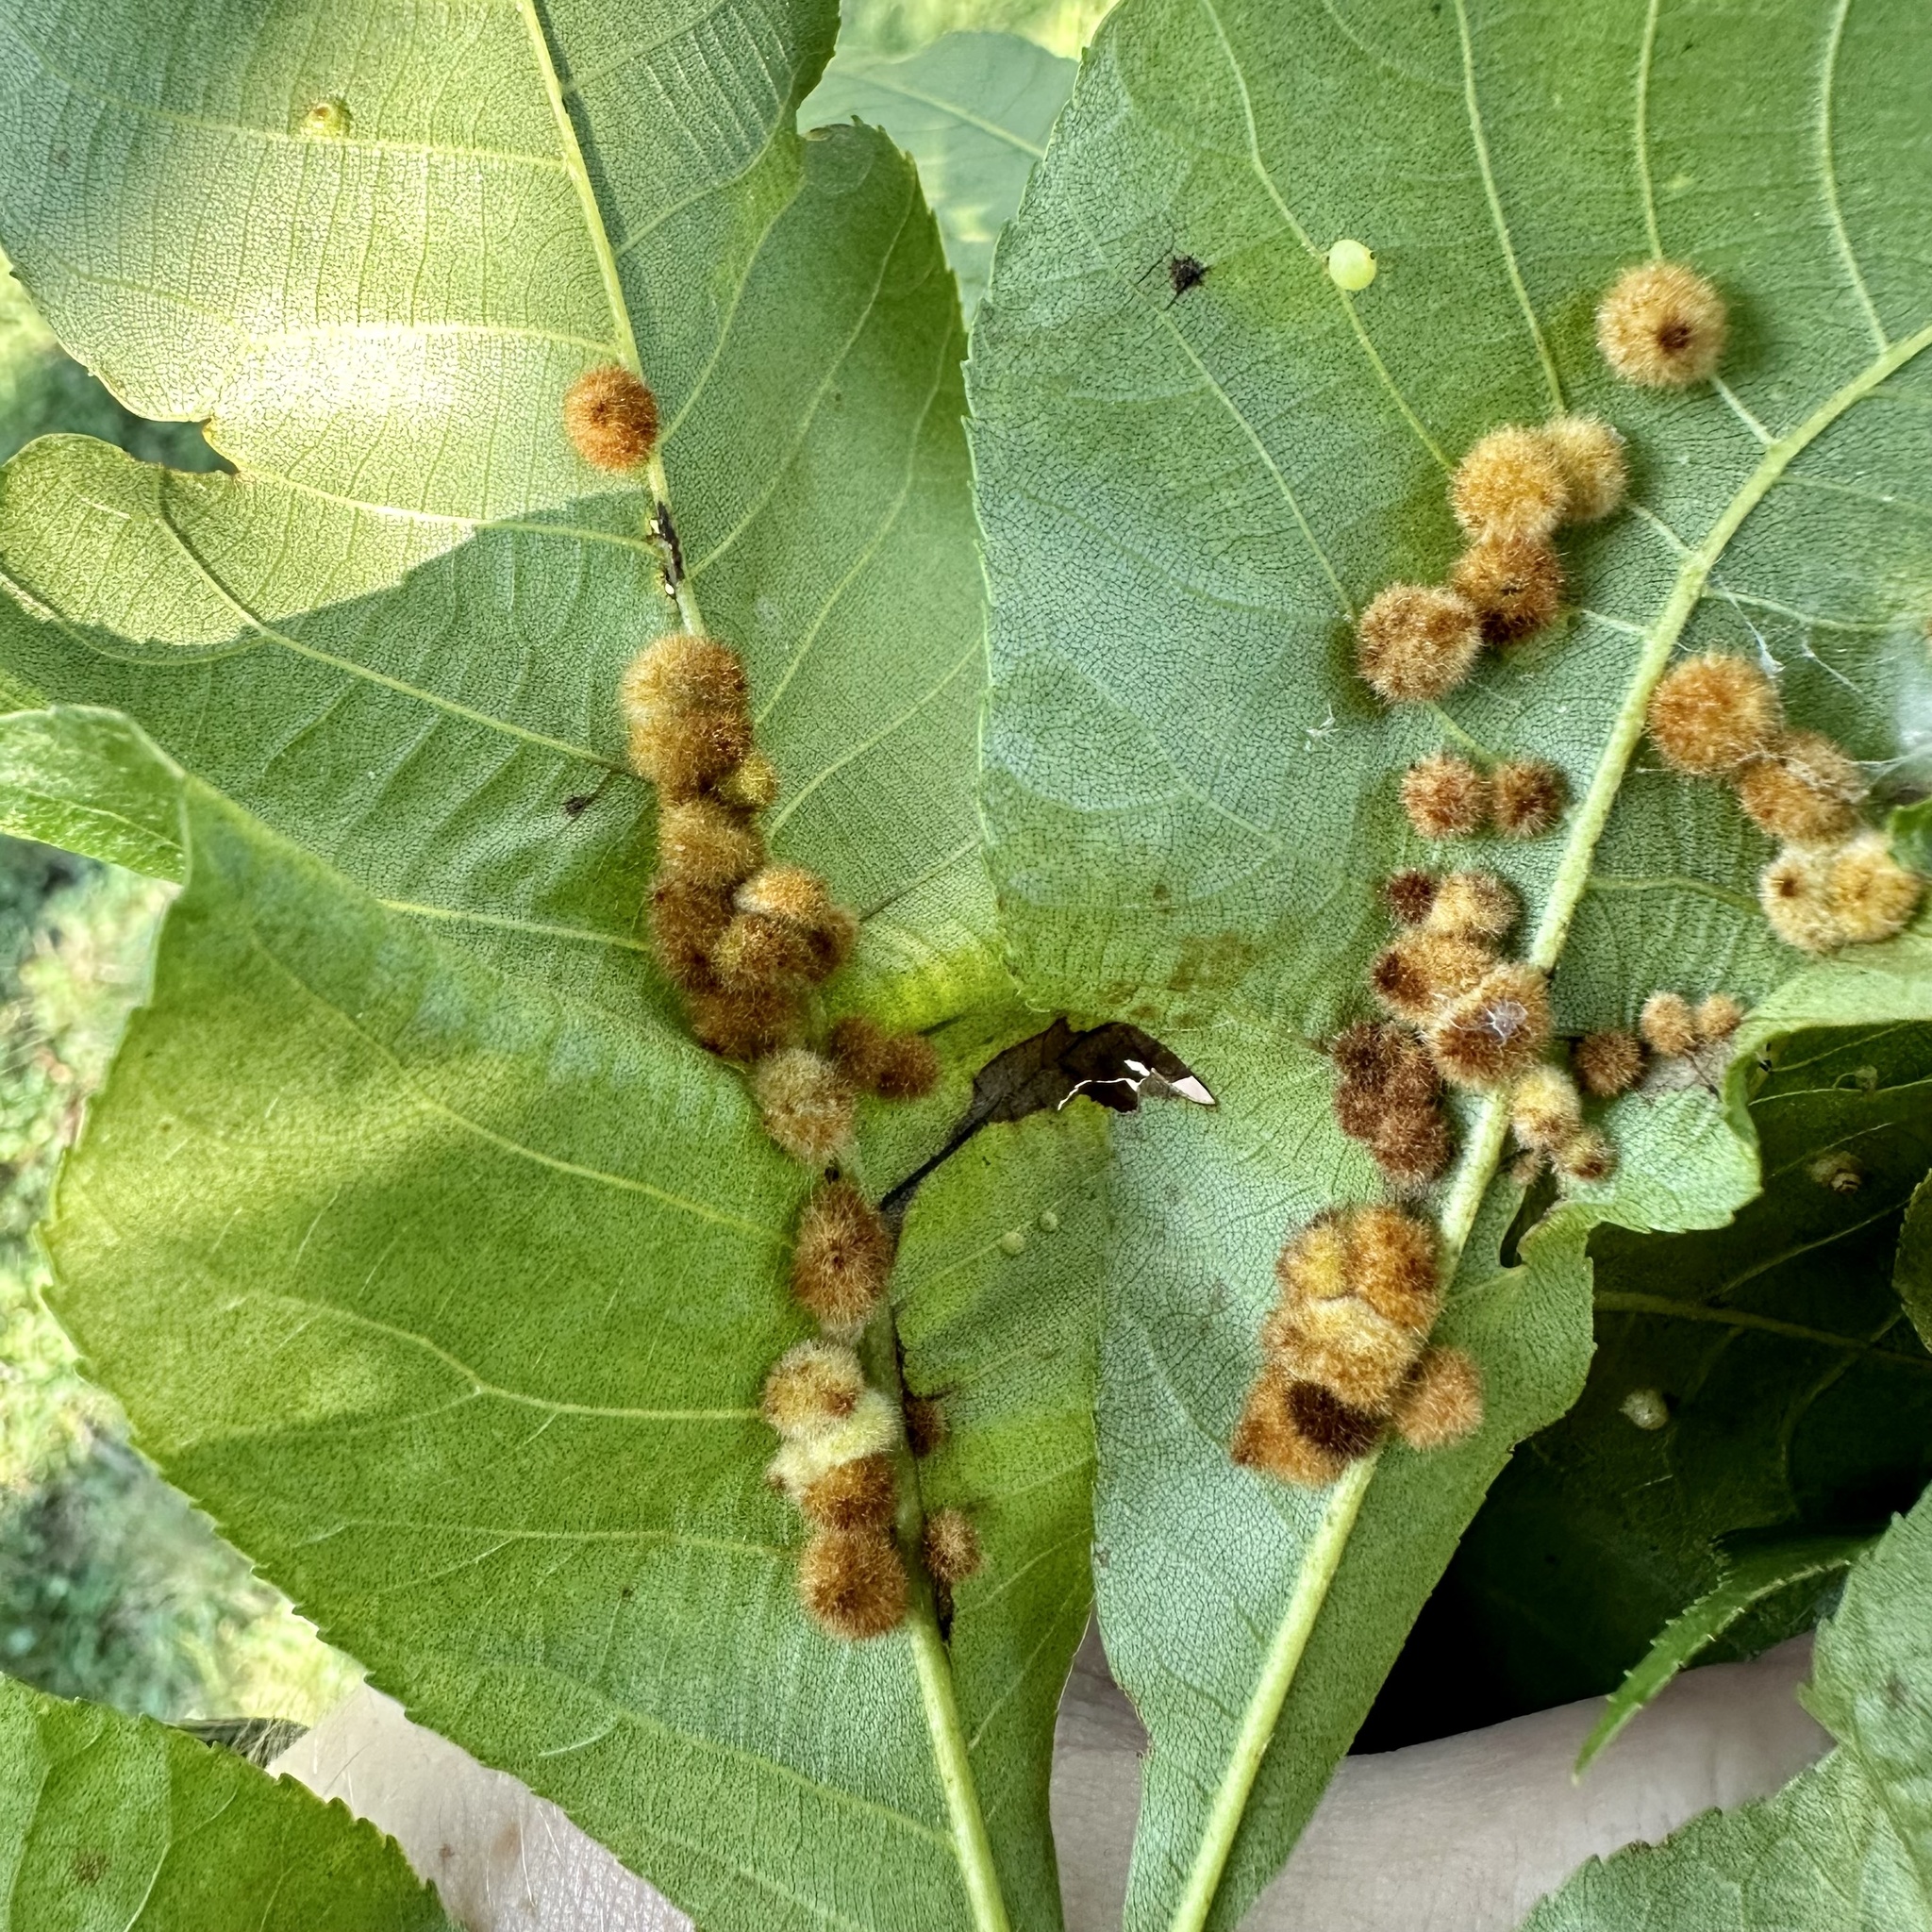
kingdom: Animalia
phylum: Arthropoda
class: Insecta
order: Diptera
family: Cecidomyiidae
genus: Caryomyia
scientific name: Caryomyia aggregata
